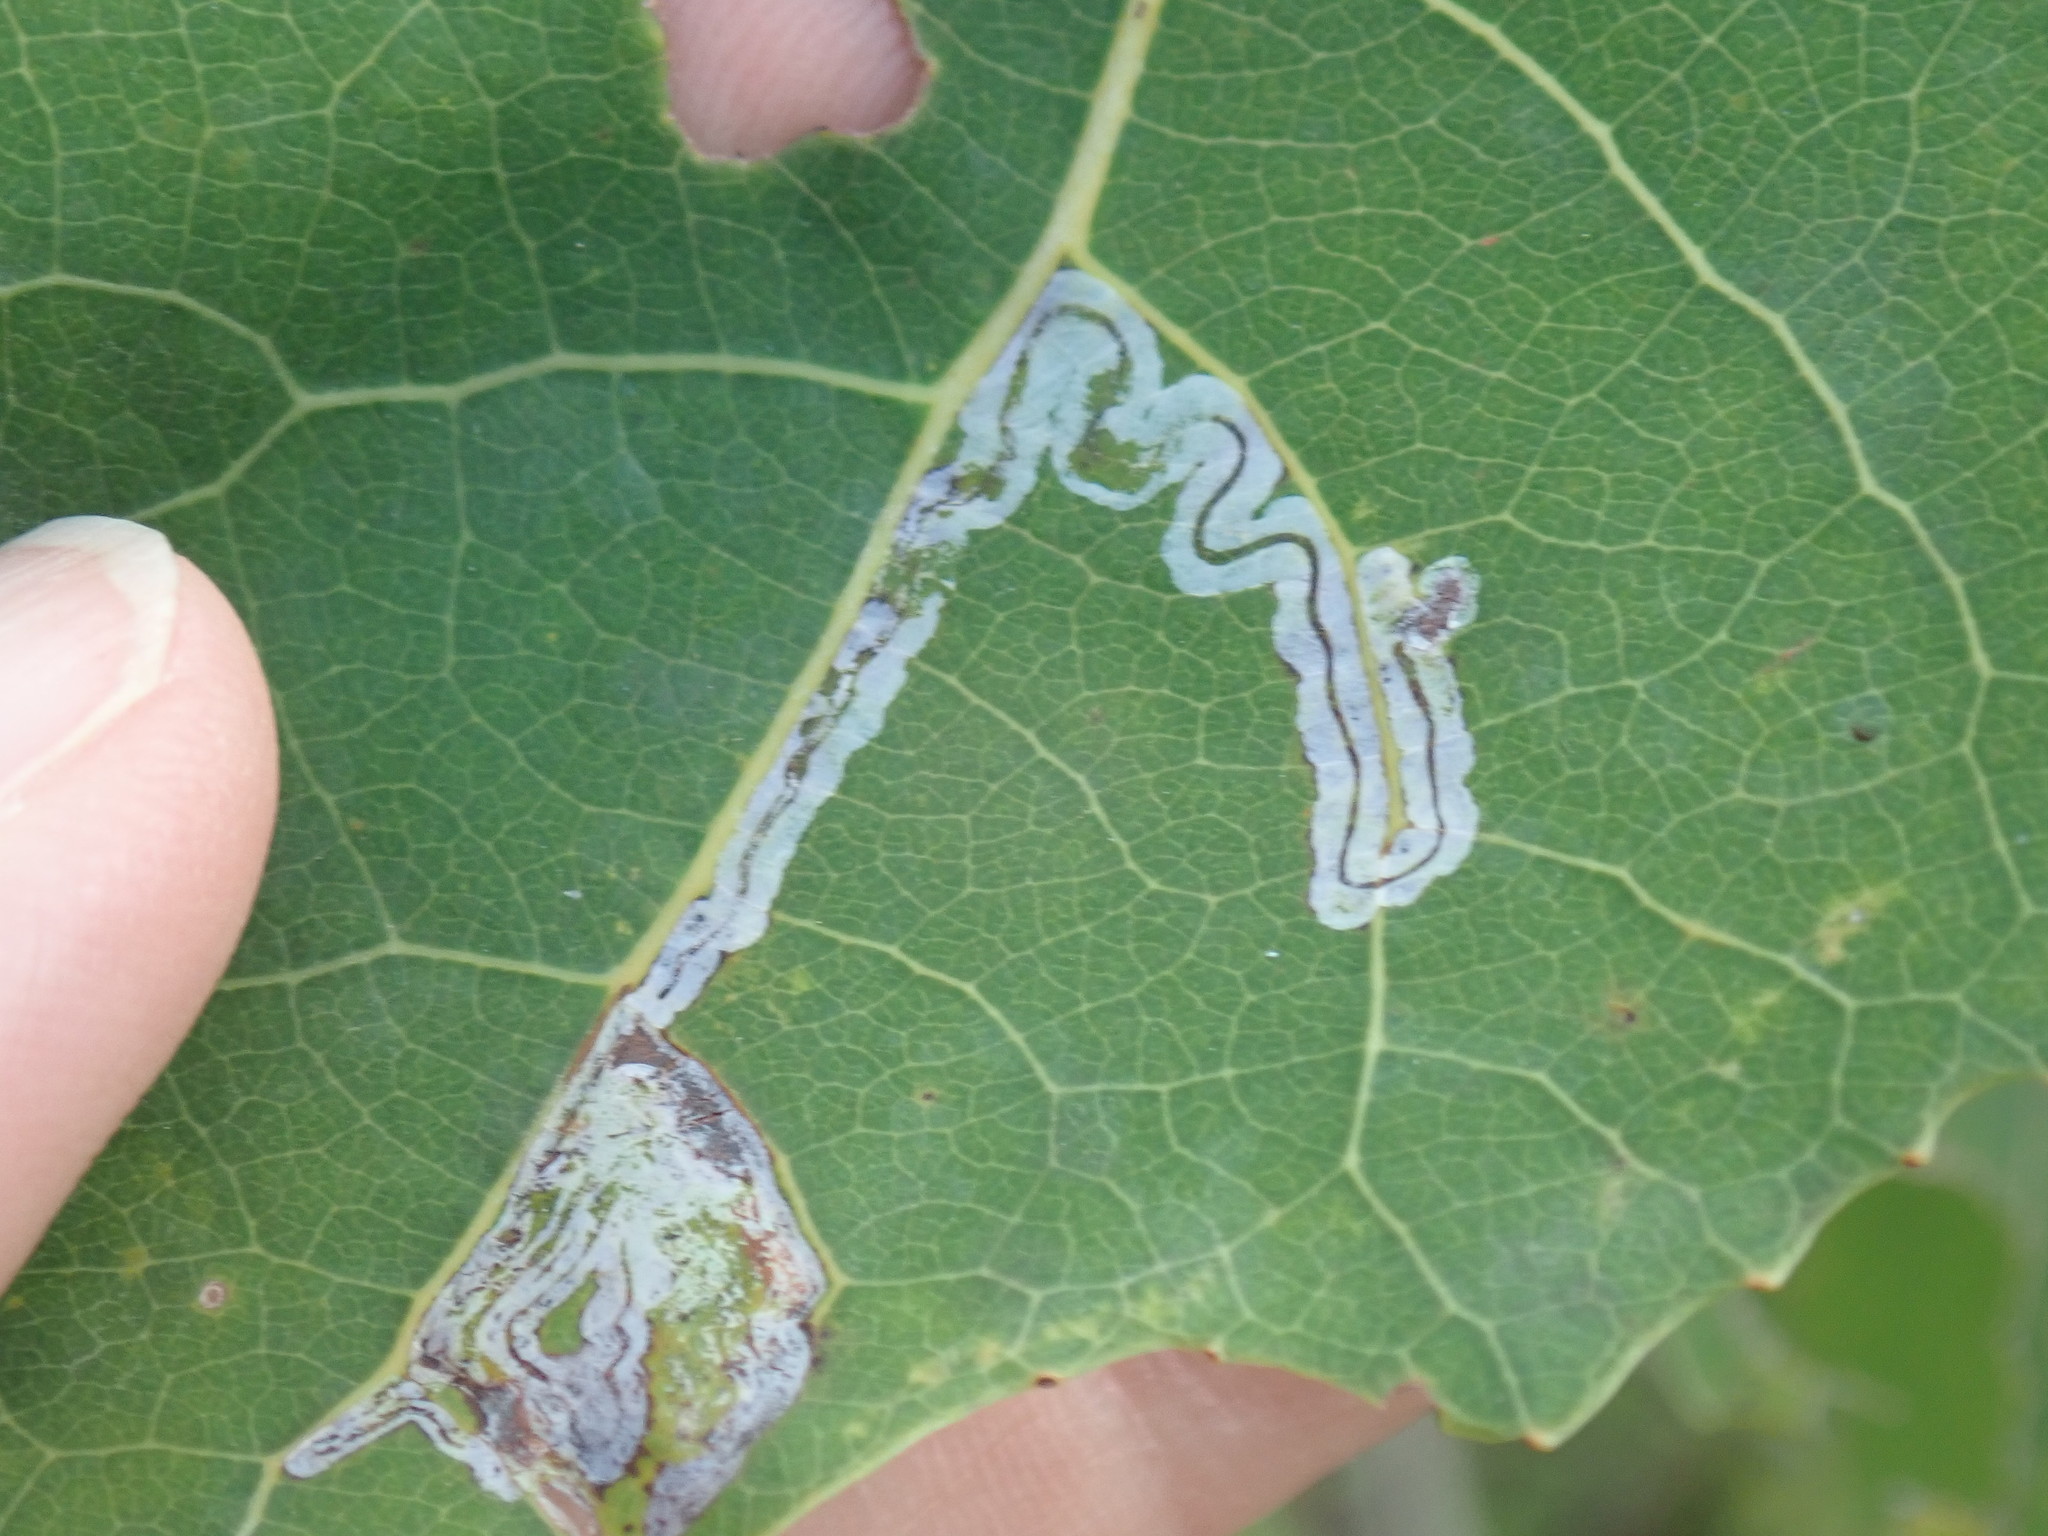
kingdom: Animalia
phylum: Arthropoda
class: Insecta
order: Lepidoptera
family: Gracillariidae
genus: Phyllocnistis
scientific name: Phyllocnistis populiella
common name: Aspen serpentine leafminer moth
